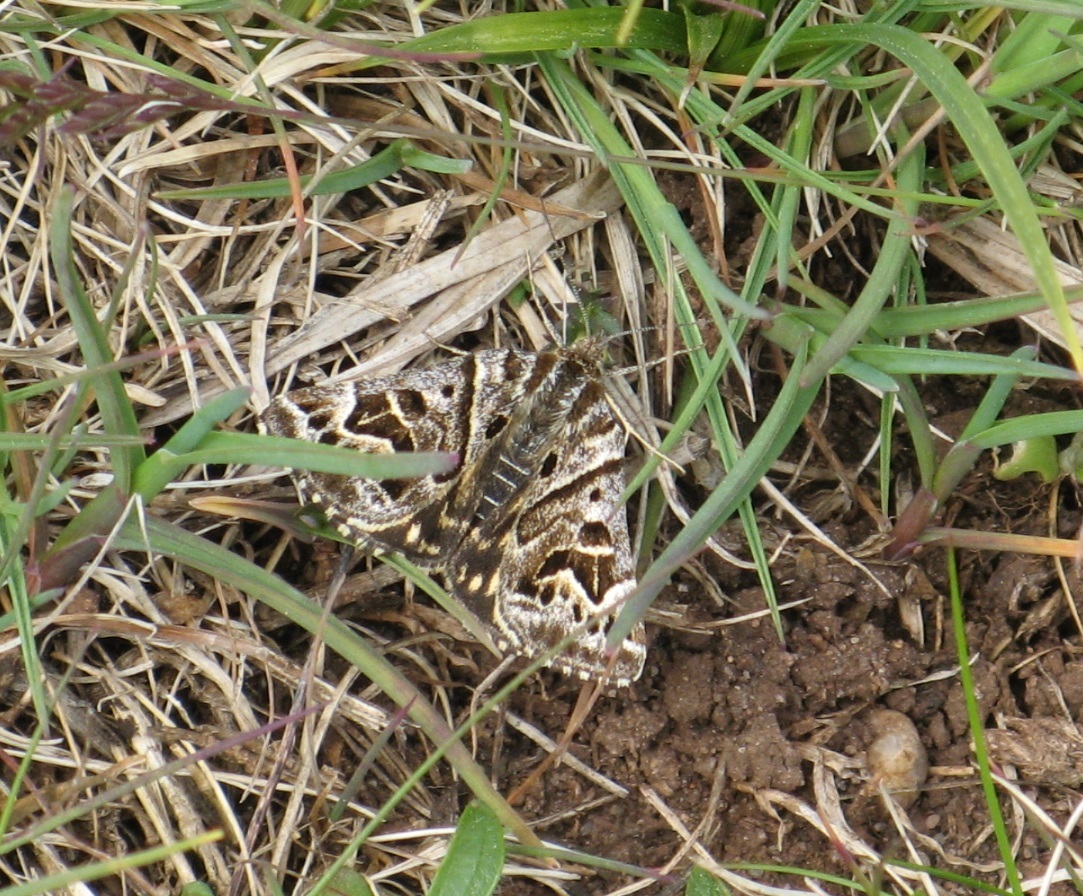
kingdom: Animalia
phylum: Arthropoda
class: Insecta
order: Lepidoptera
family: Erebidae
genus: Callistege
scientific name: Callistege mi
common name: Mother shipton
